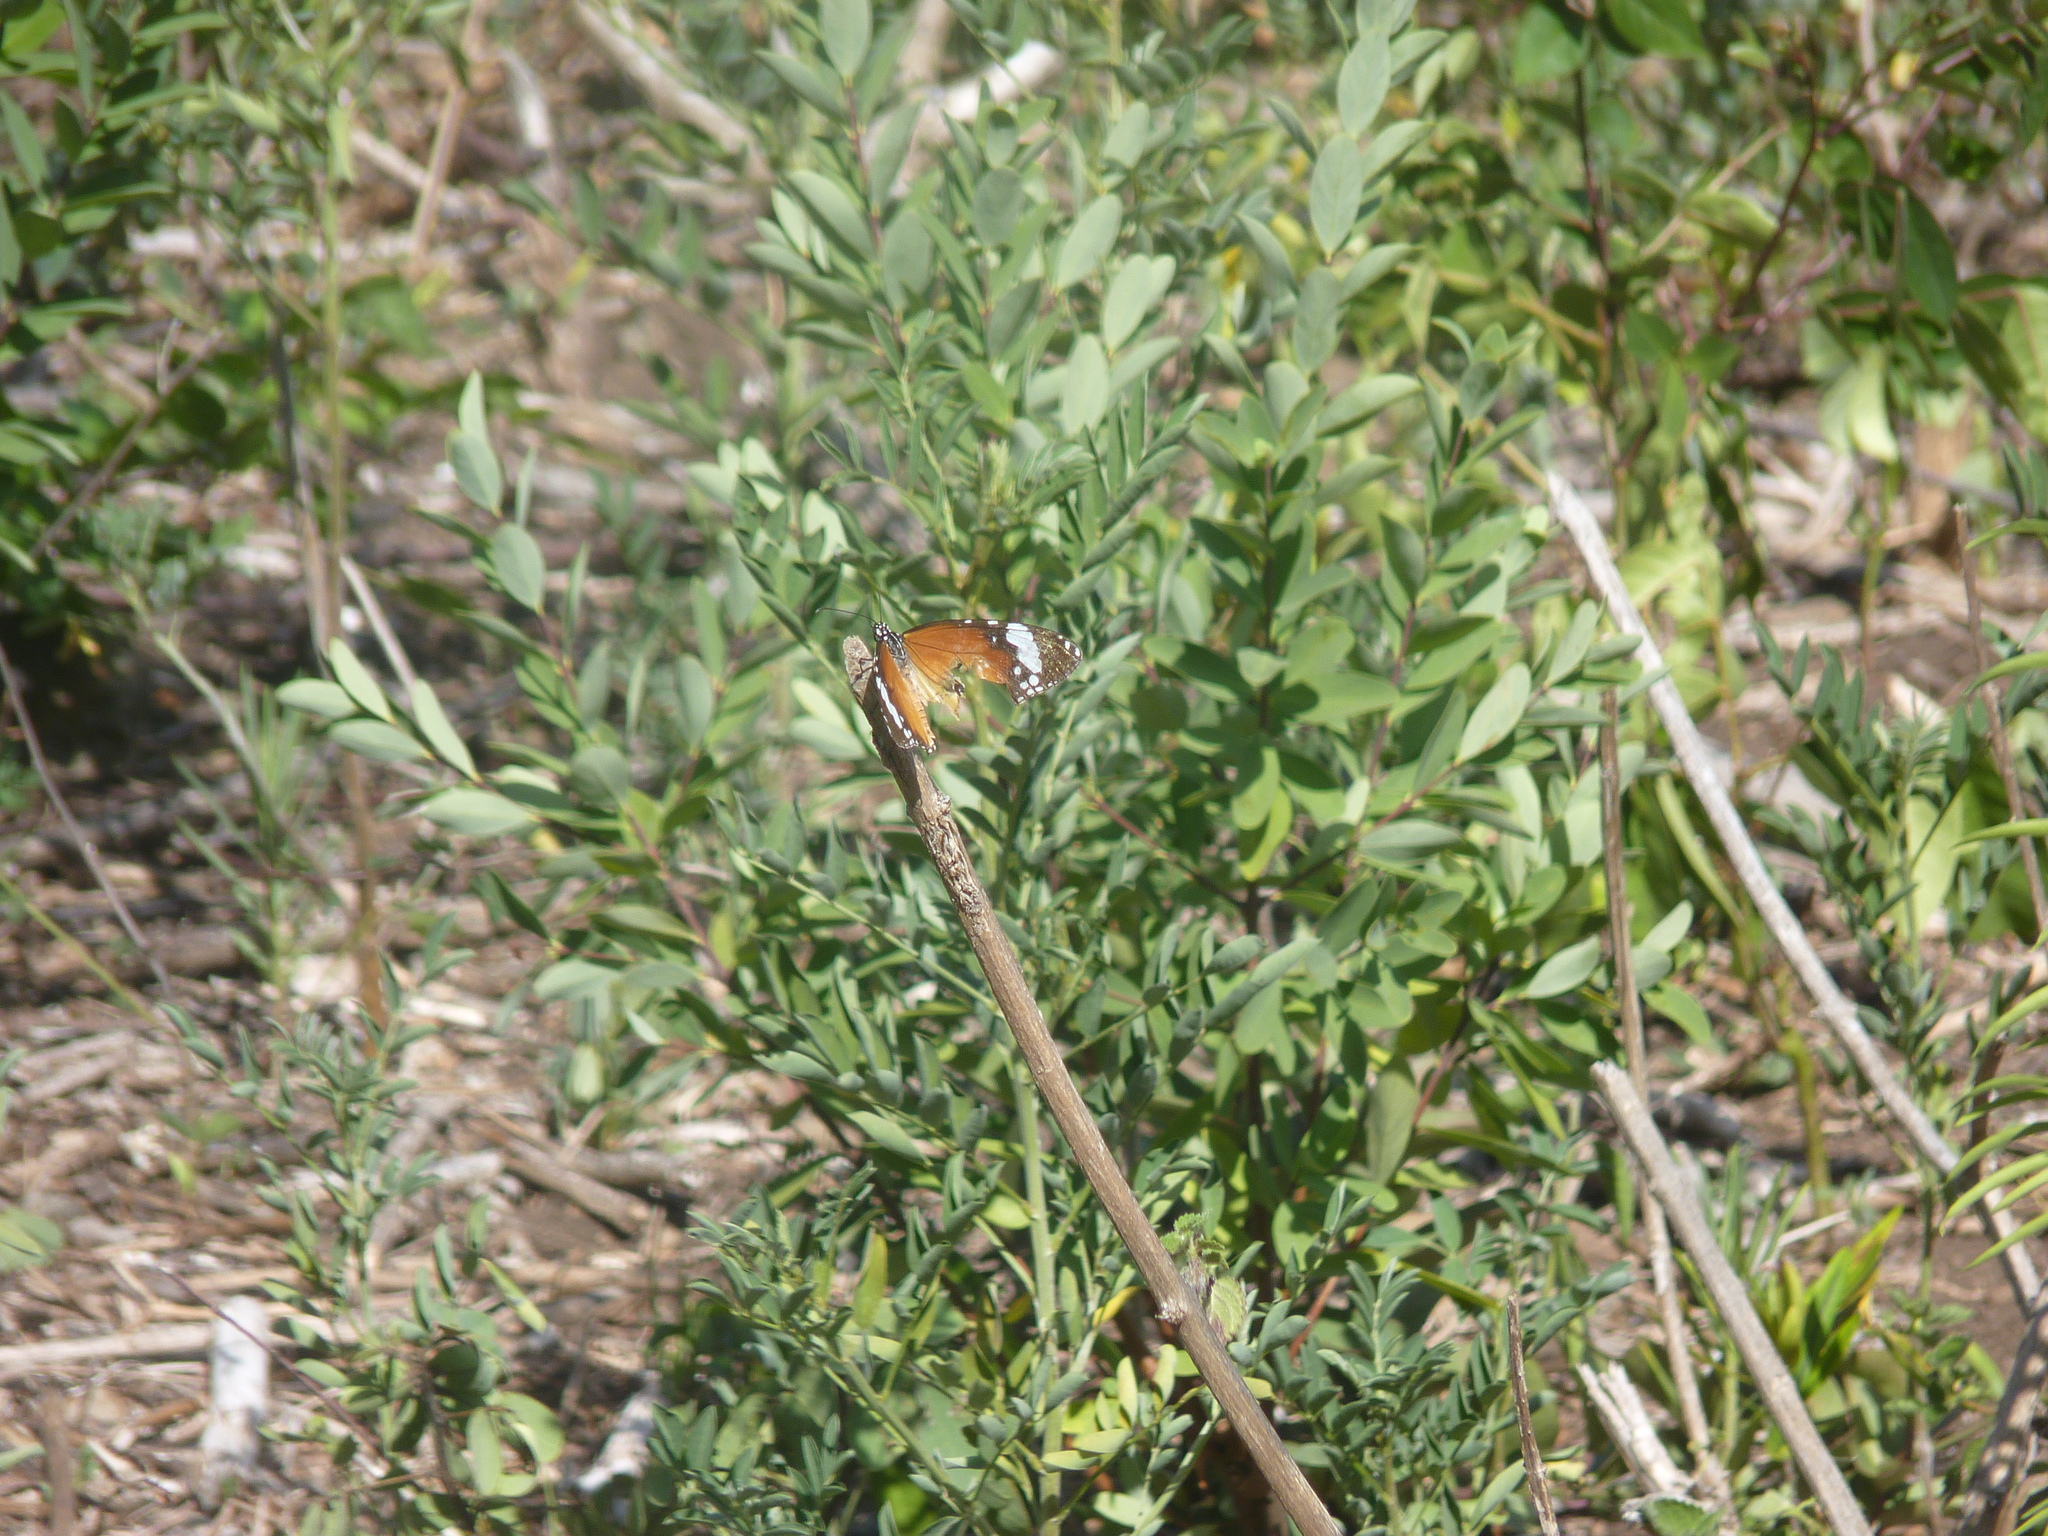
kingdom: Animalia
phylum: Arthropoda
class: Insecta
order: Lepidoptera
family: Nymphalidae
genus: Danaus
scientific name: Danaus chrysippus
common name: Plain tiger
